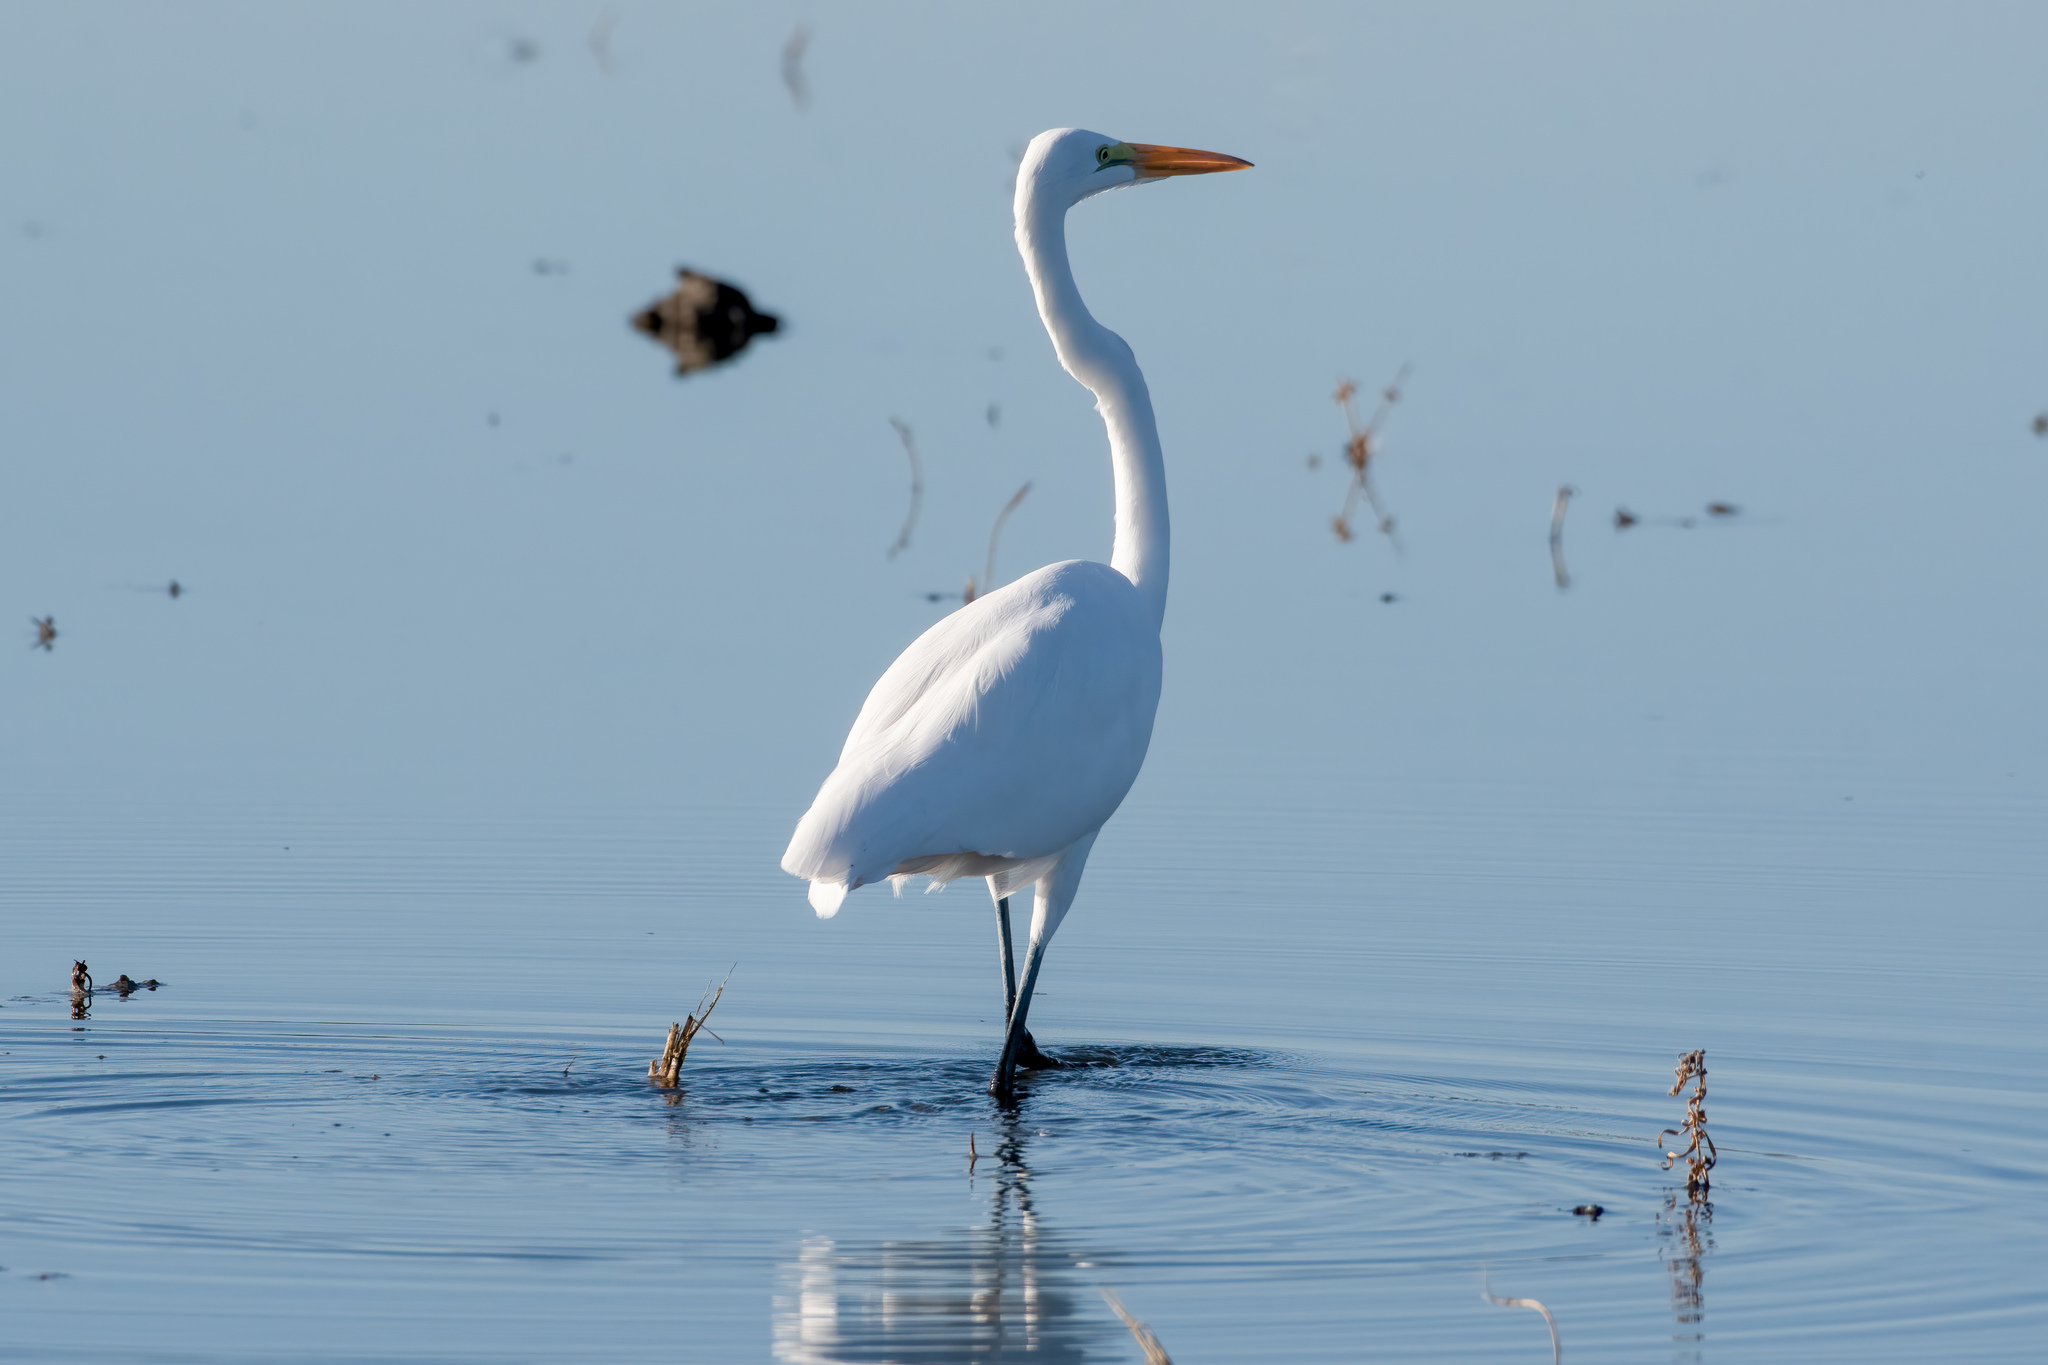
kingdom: Animalia
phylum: Chordata
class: Aves
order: Pelecaniformes
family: Ardeidae
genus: Ardea
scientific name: Ardea alba
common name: Great egret
